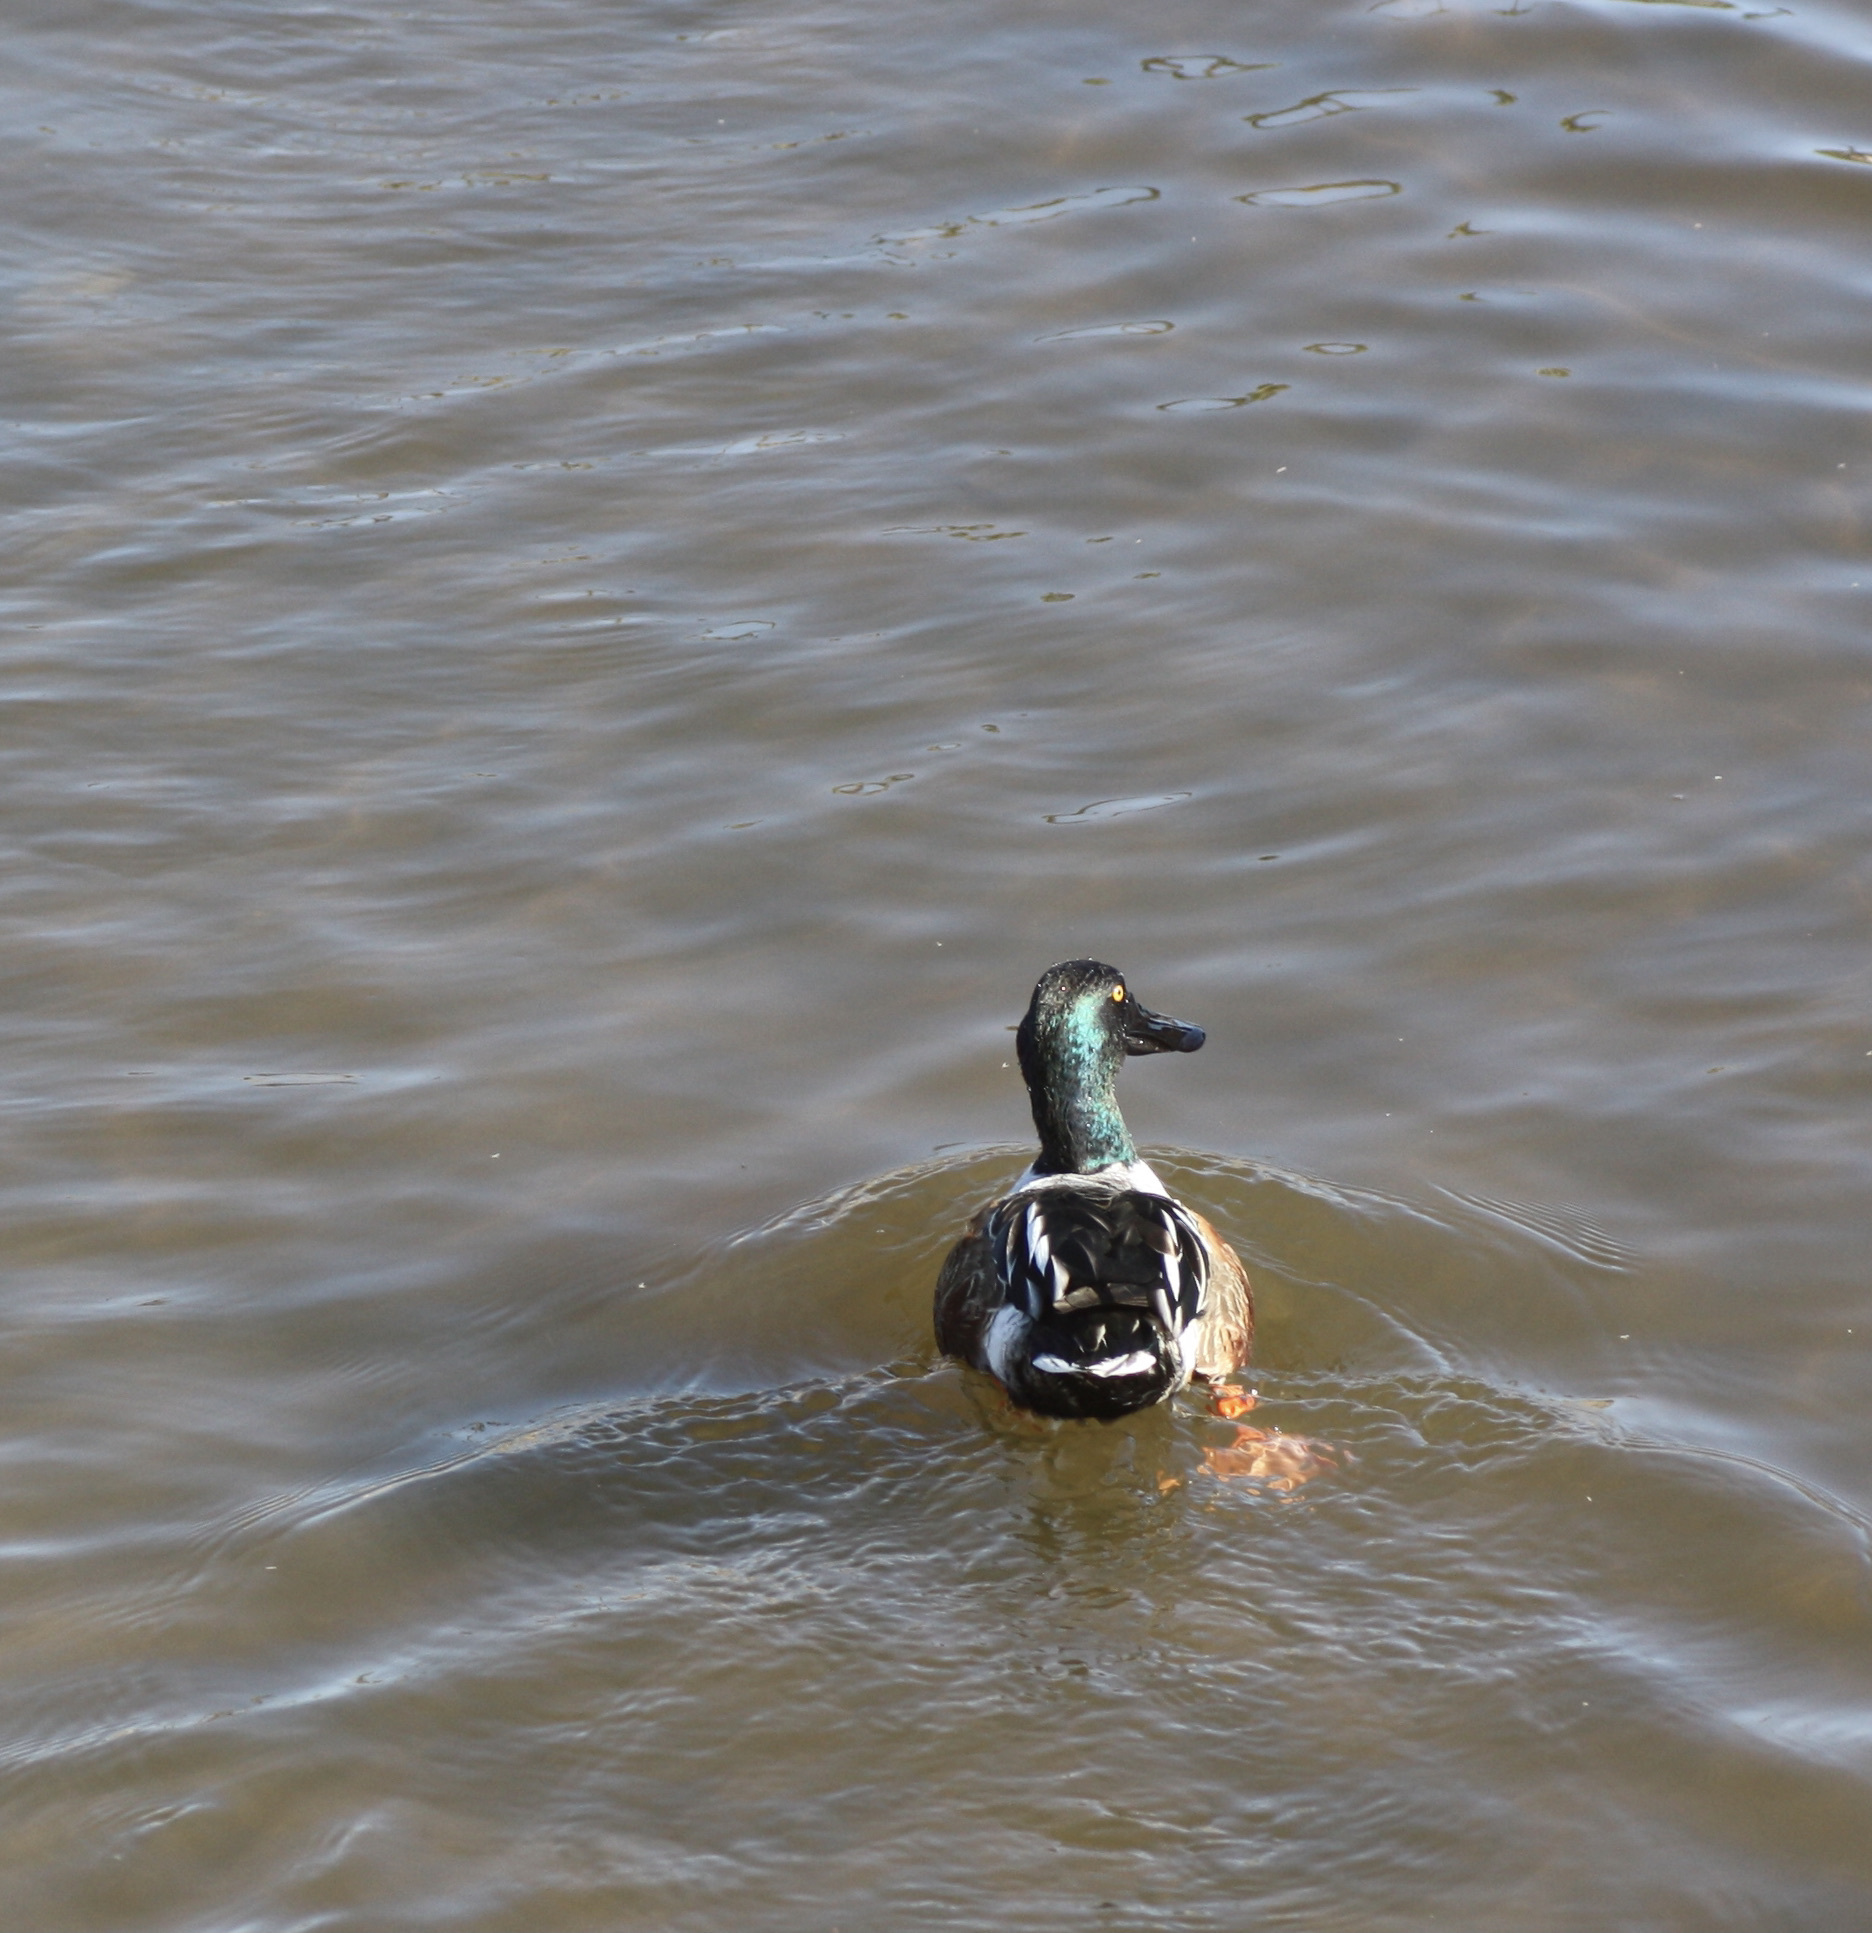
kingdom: Animalia
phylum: Chordata
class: Aves
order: Anseriformes
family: Anatidae
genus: Spatula
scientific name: Spatula clypeata
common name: Northern shoveler
